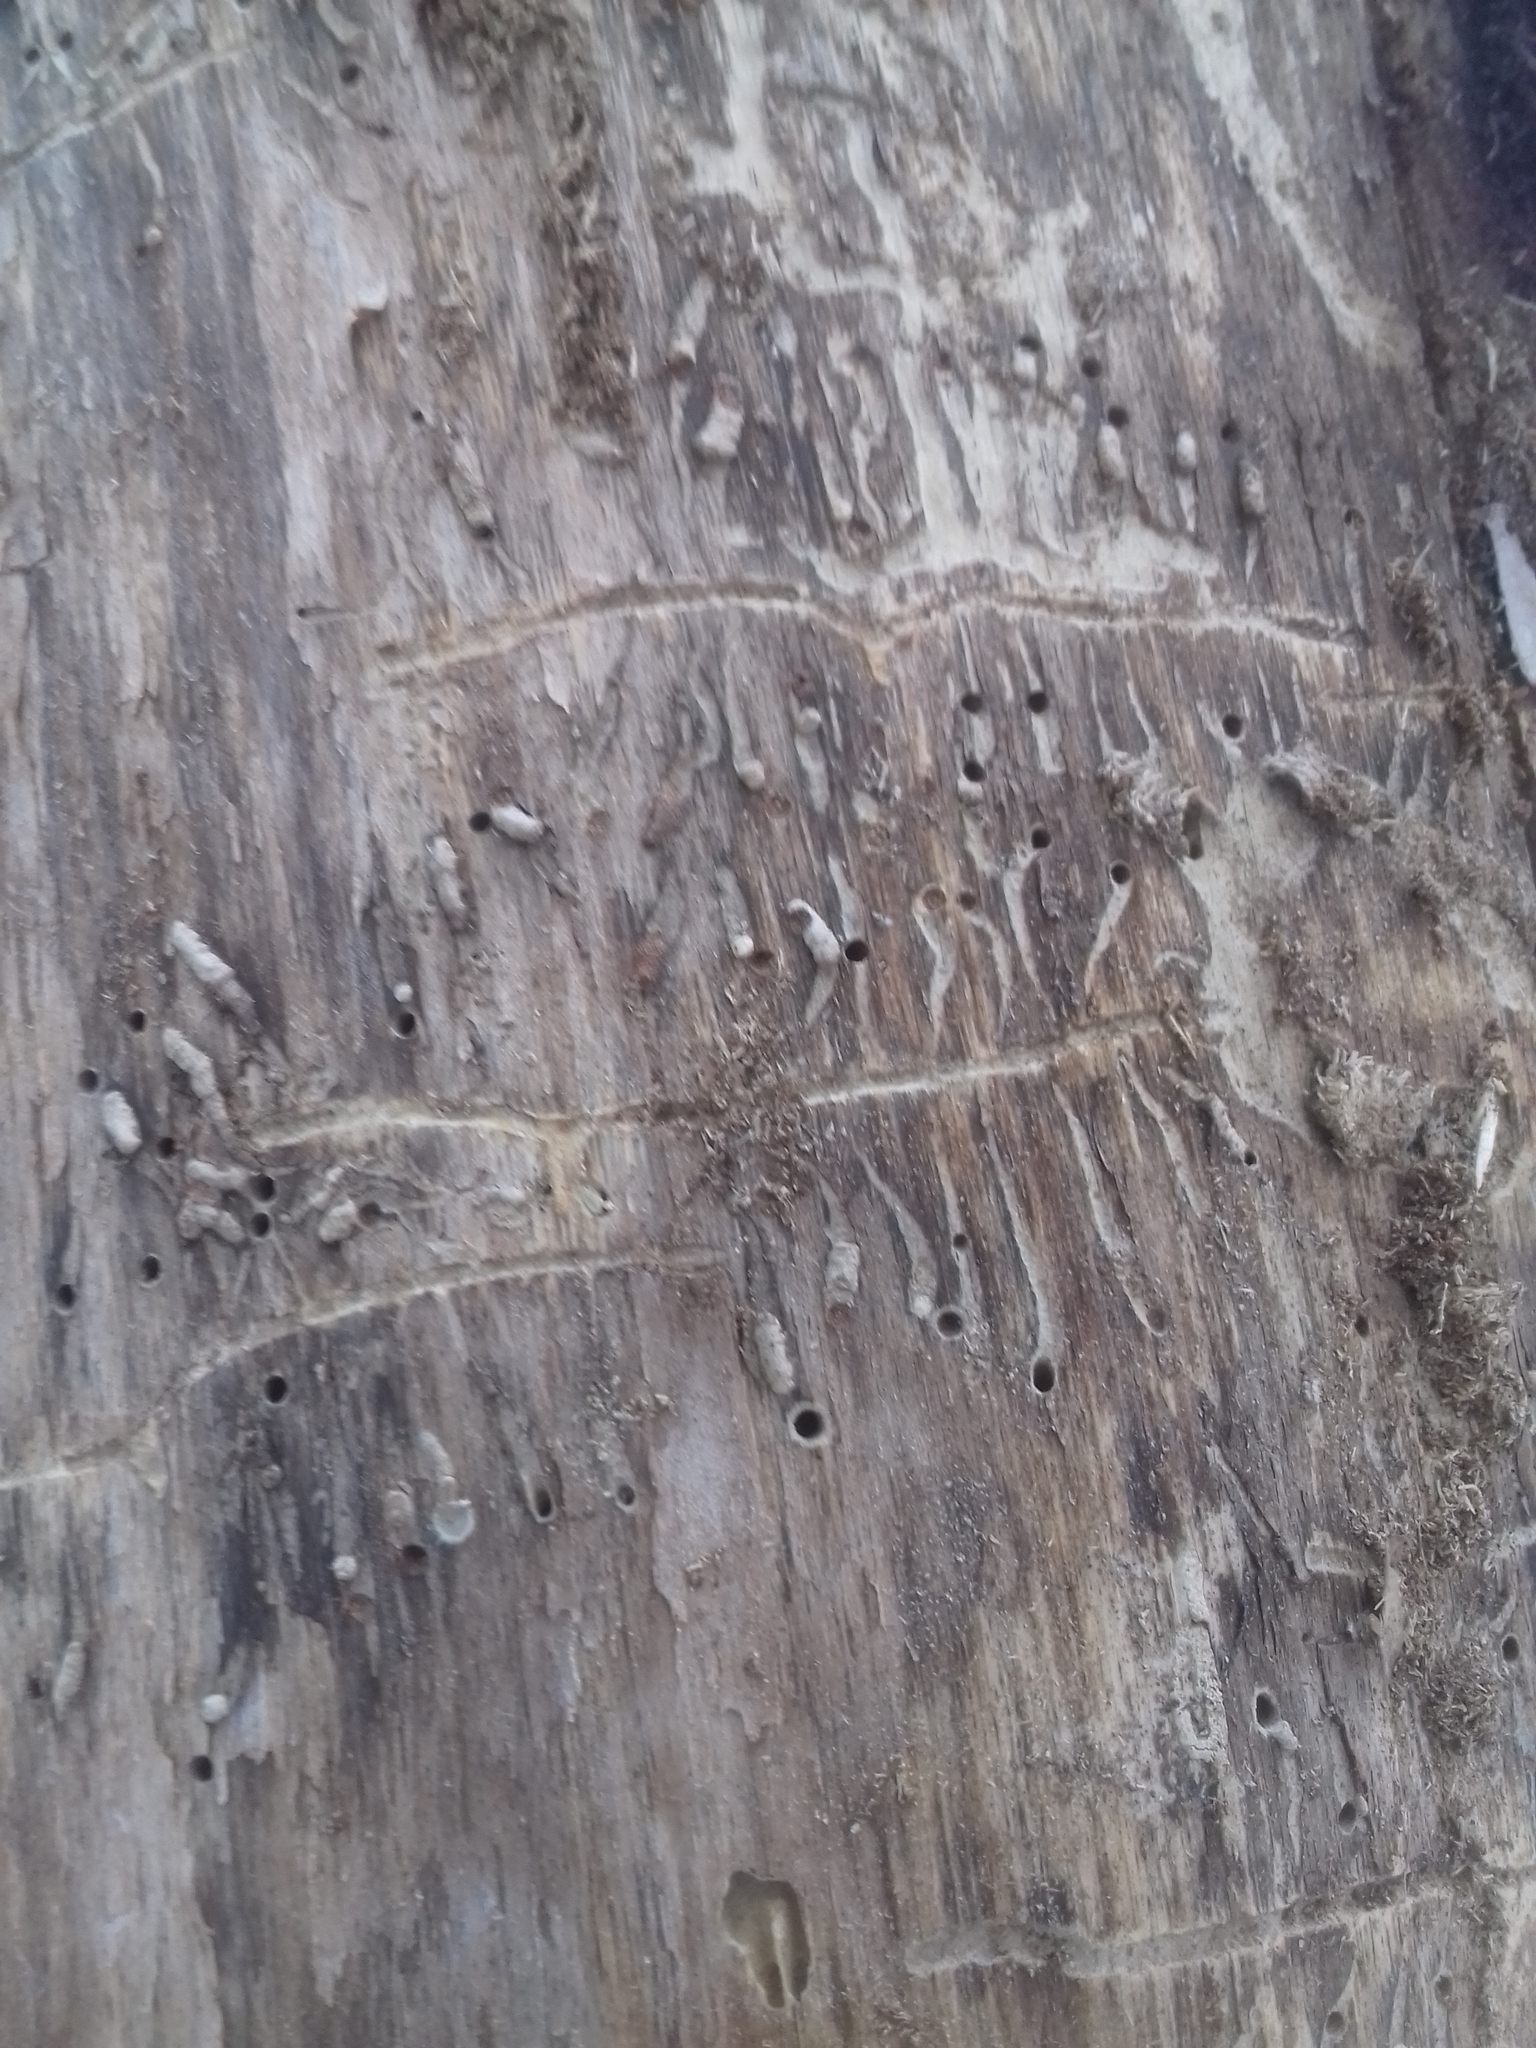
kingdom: Animalia
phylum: Arthropoda
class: Insecta
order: Coleoptera
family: Curculionidae
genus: Tomicus
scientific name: Tomicus minor
